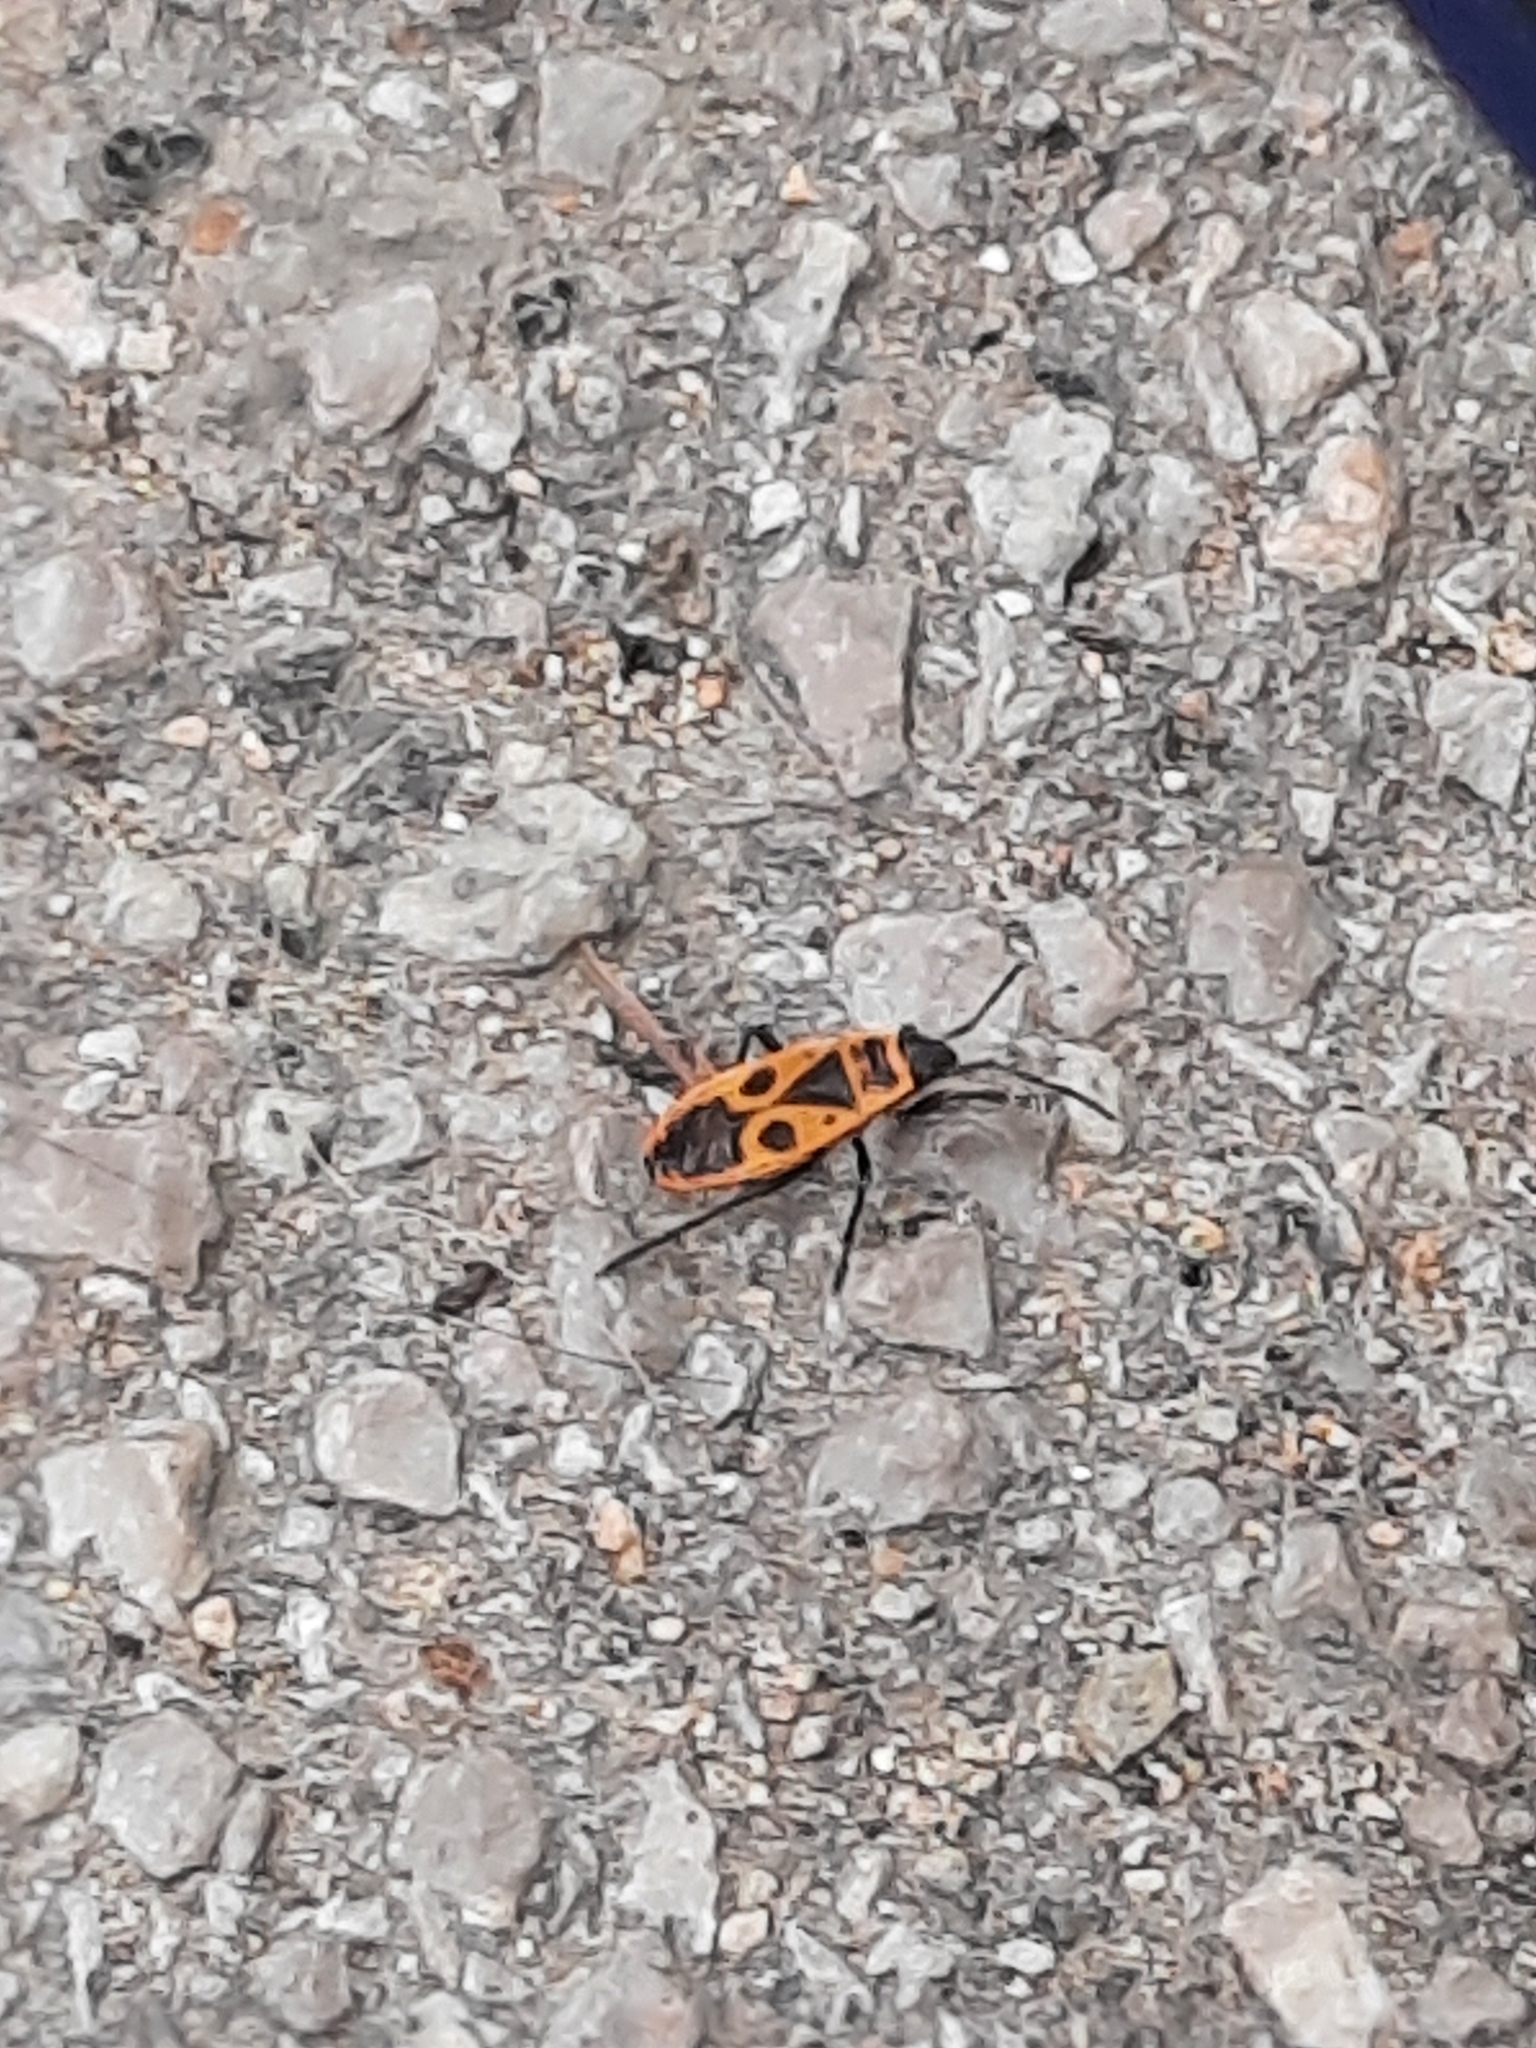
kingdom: Animalia
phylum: Arthropoda
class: Insecta
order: Hemiptera
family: Pyrrhocoridae
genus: Pyrrhocoris
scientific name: Pyrrhocoris apterus
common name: Firebug
